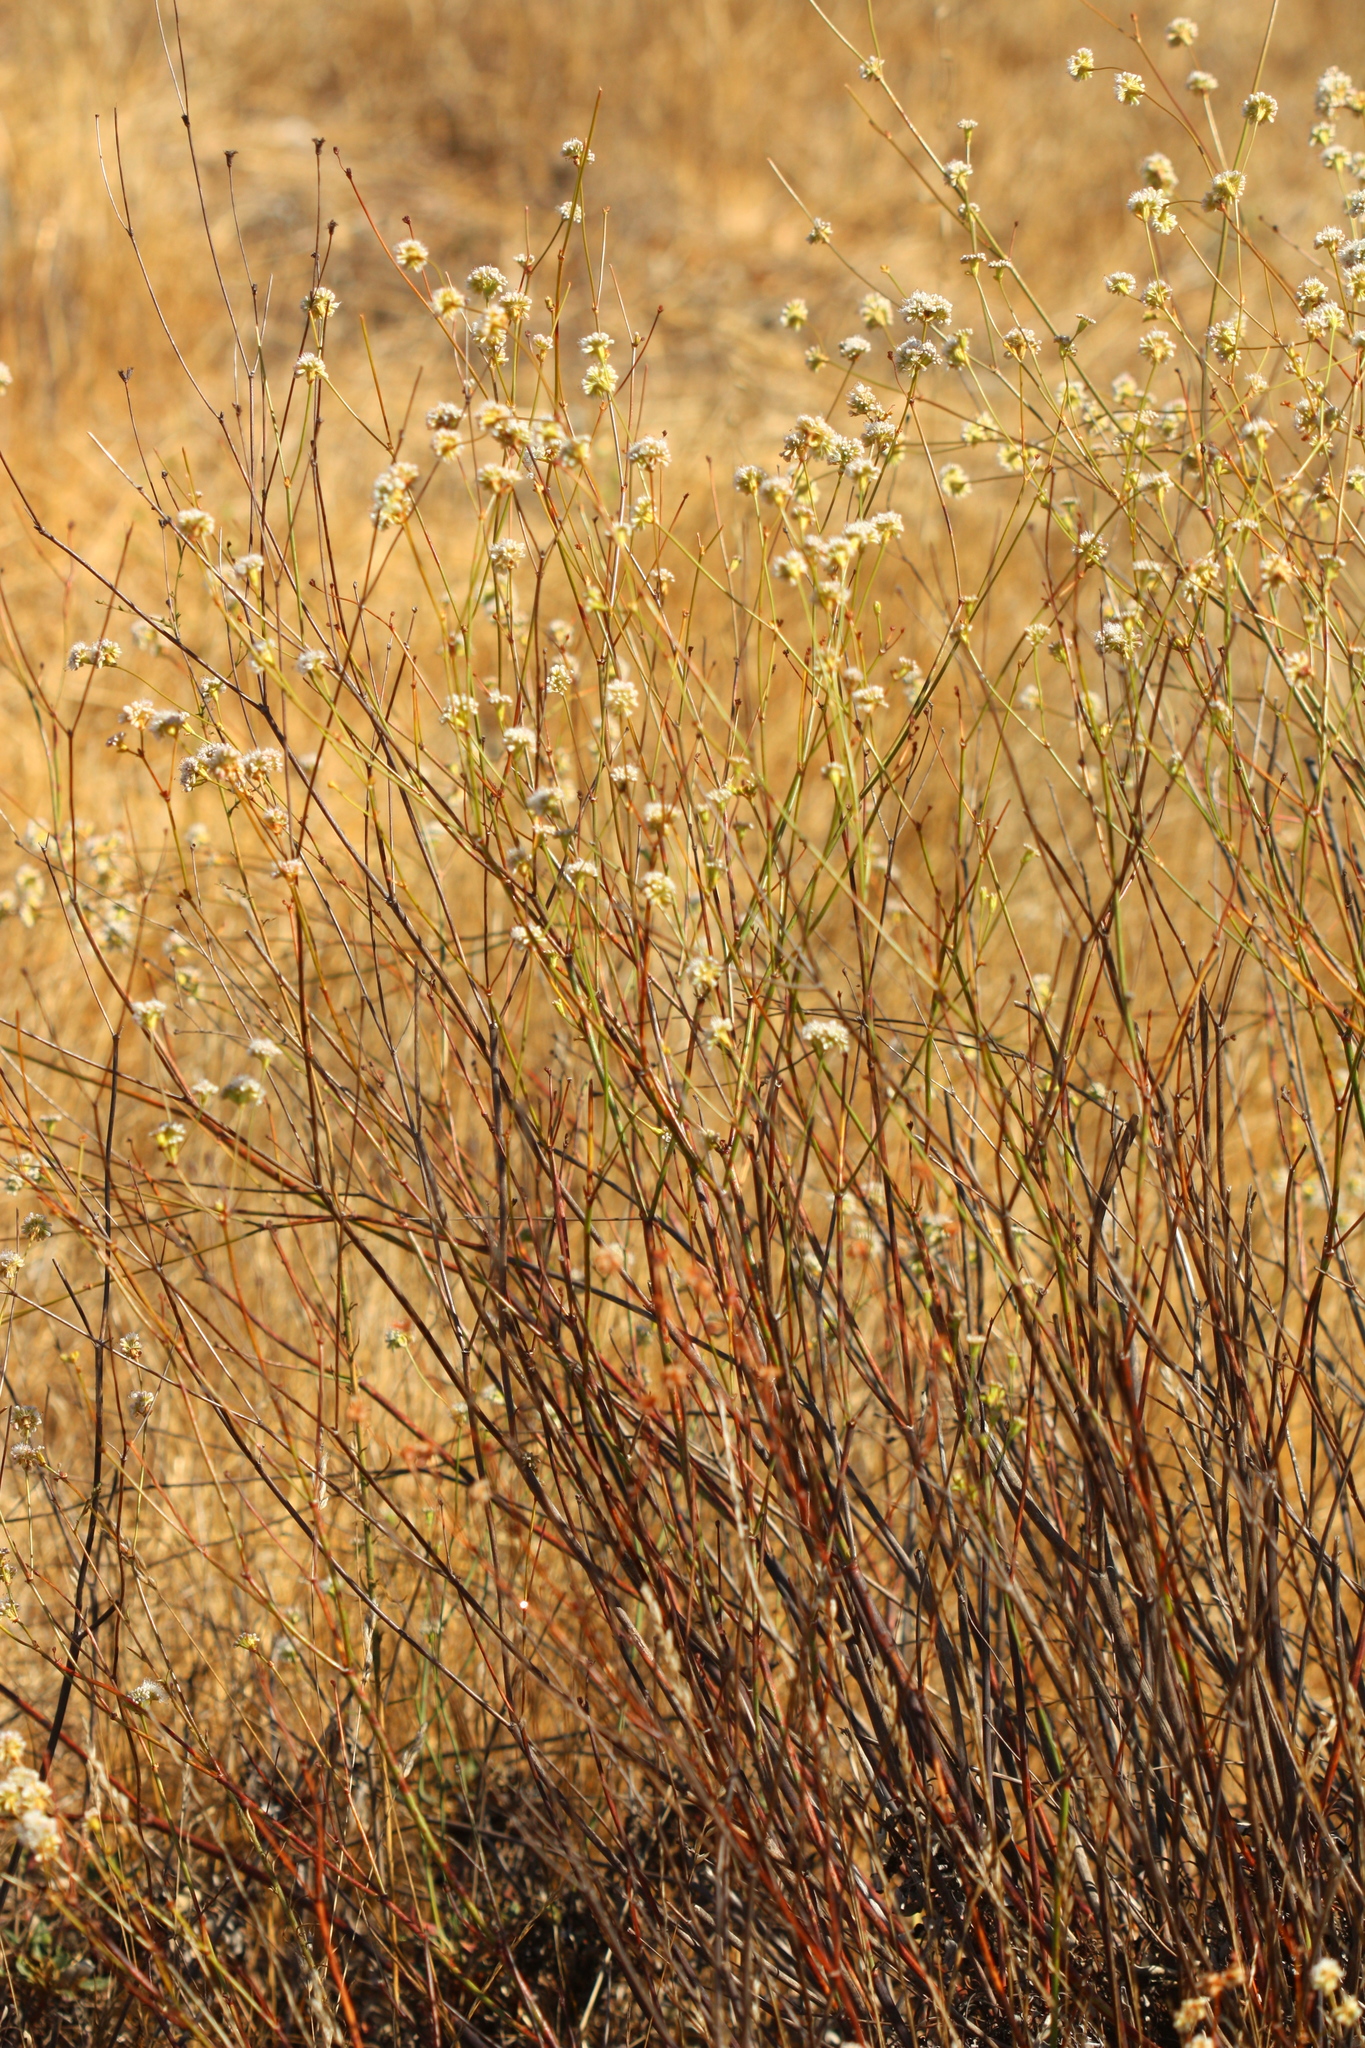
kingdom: Plantae
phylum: Tracheophyta
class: Magnoliopsida
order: Caryophyllales
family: Polygonaceae
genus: Eriogonum
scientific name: Eriogonum nudum
